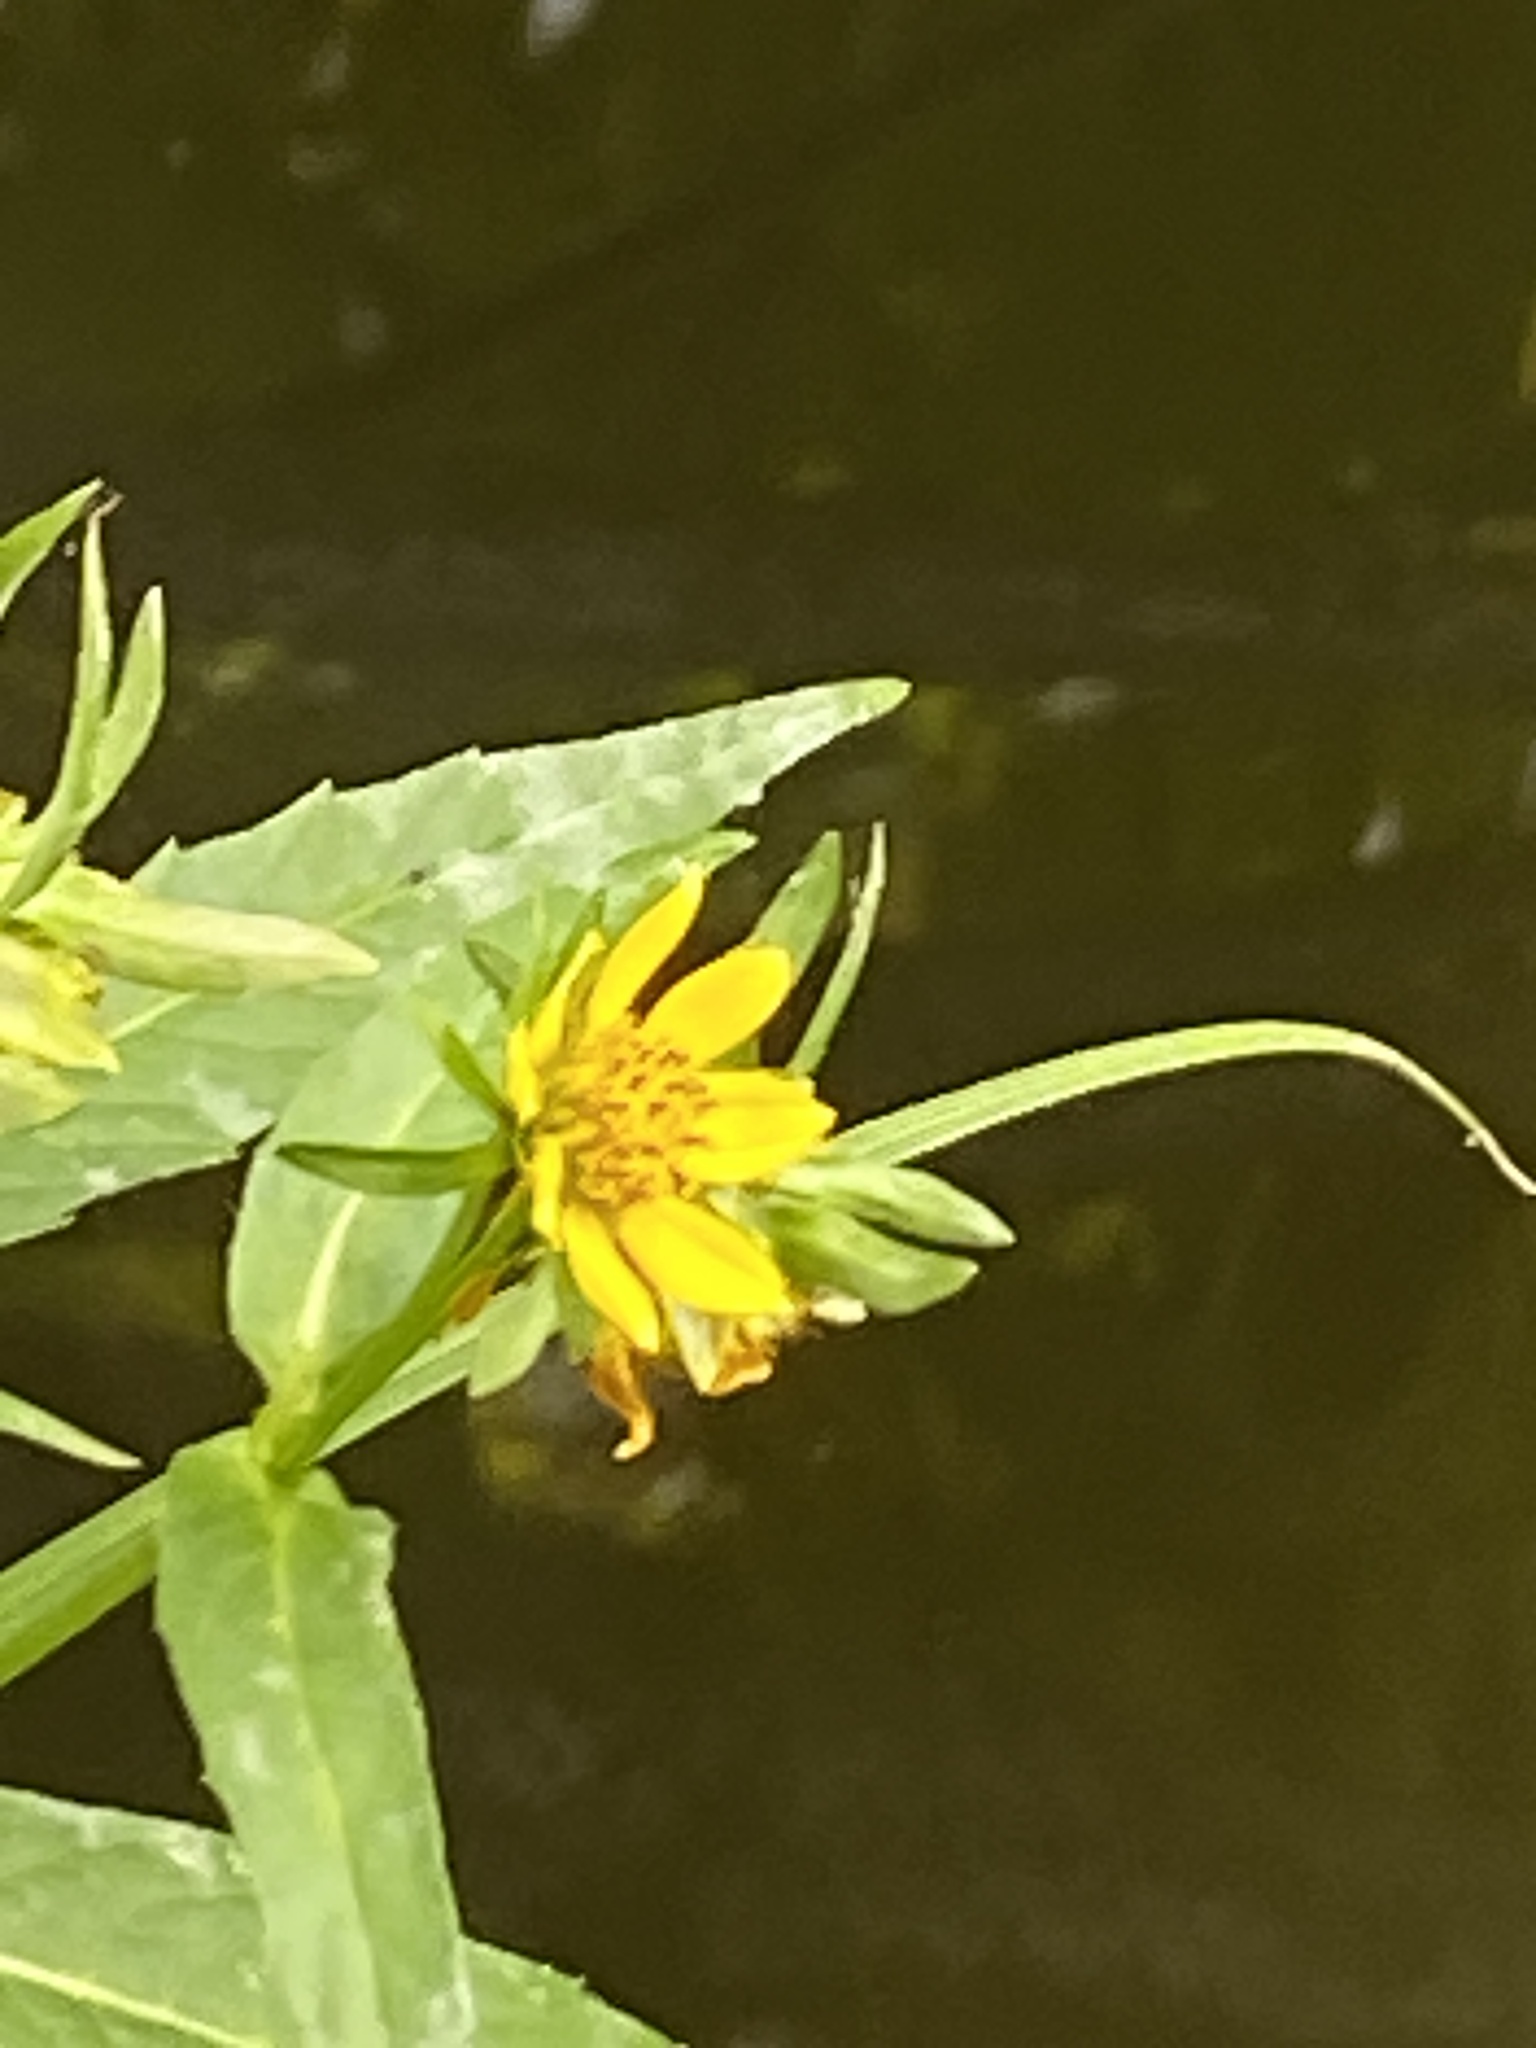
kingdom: Plantae
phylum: Tracheophyta
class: Magnoliopsida
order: Asterales
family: Asteraceae
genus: Bidens
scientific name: Bidens cernua
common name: Nodding bur-marigold
